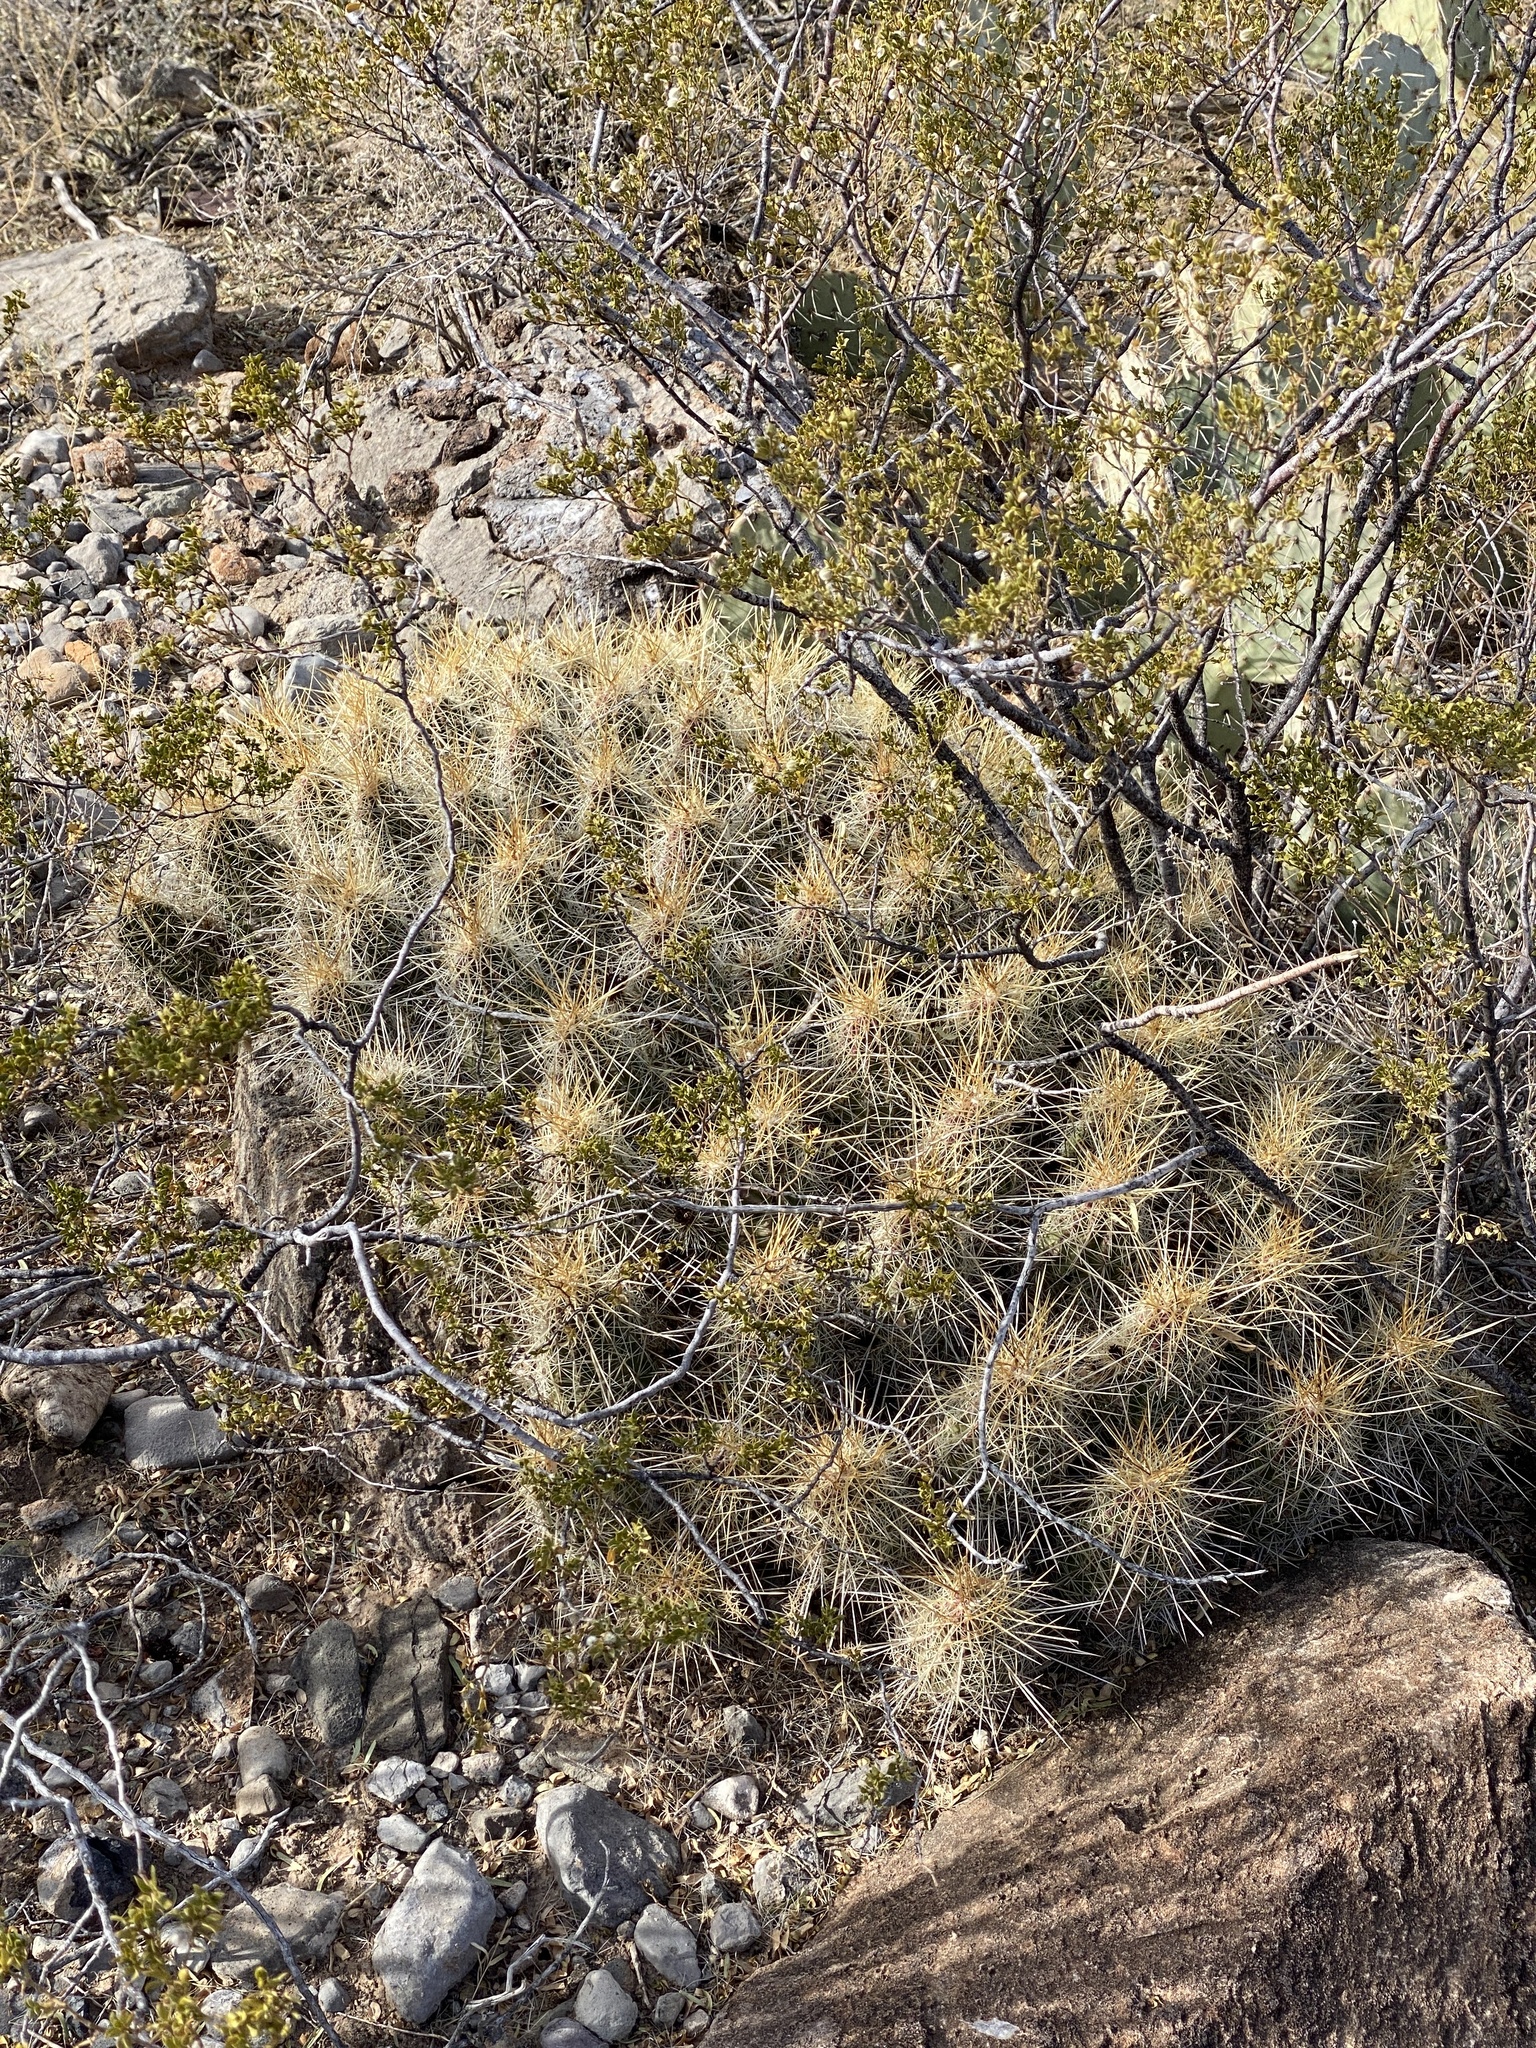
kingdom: Plantae
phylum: Tracheophyta
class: Magnoliopsida
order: Caryophyllales
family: Cactaceae
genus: Echinocereus
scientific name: Echinocereus stramineus
